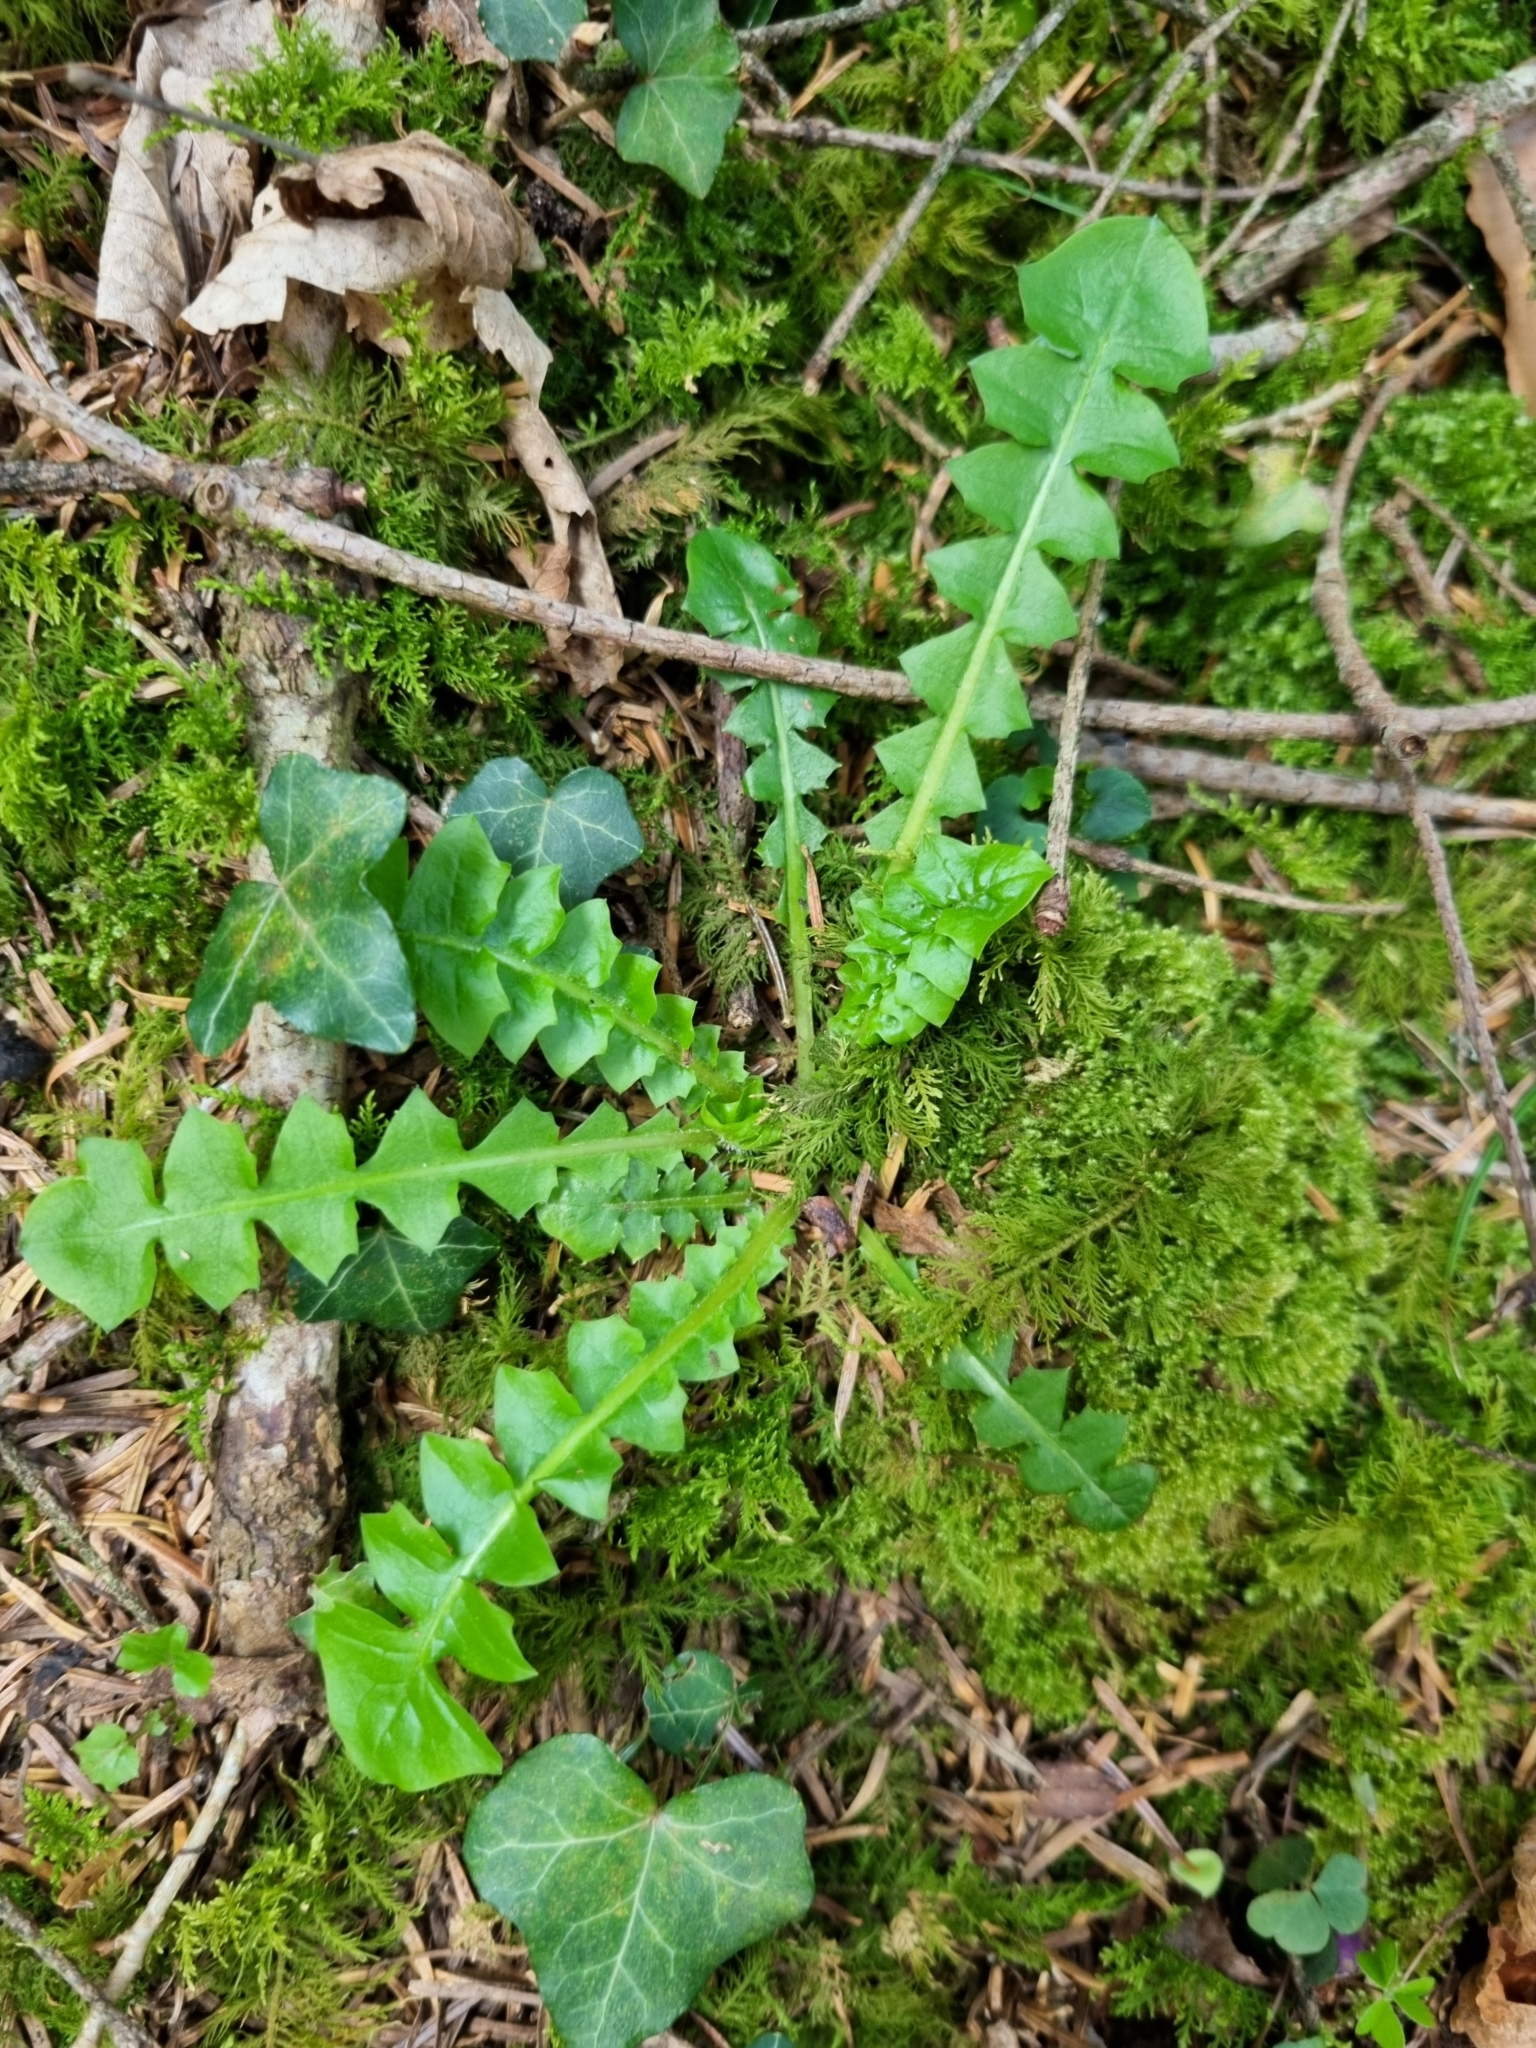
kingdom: Plantae
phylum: Tracheophyta
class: Magnoliopsida
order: Asterales
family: Asteraceae
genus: Aposeris
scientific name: Aposeris foetida
